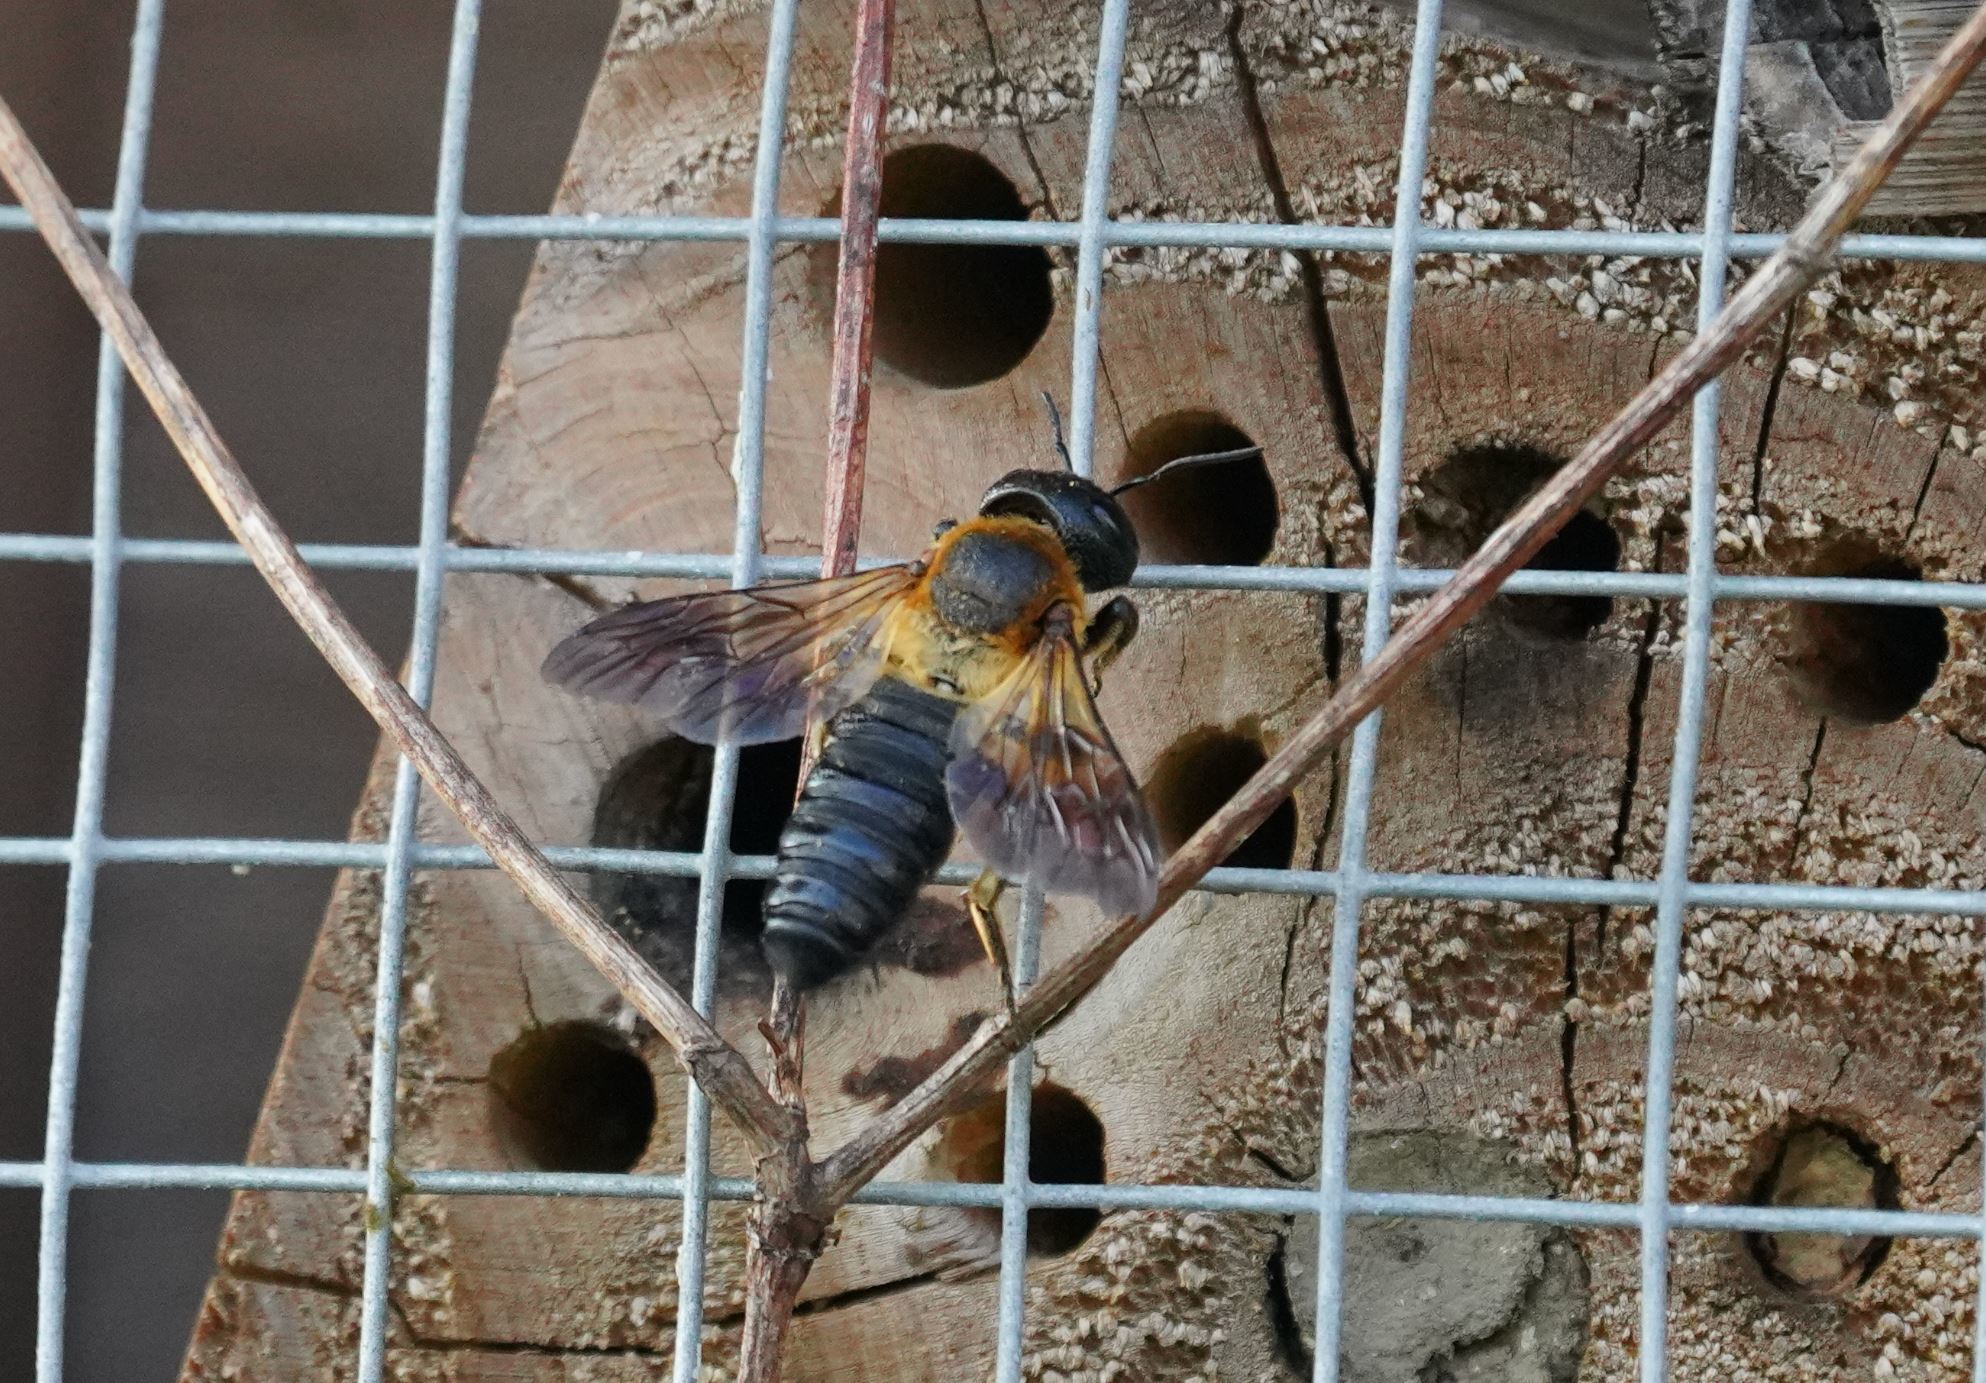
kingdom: Animalia
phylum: Arthropoda
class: Insecta
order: Hymenoptera
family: Megachilidae
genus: Megachile
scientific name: Megachile sculpturalis
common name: Sculptured resin bee
